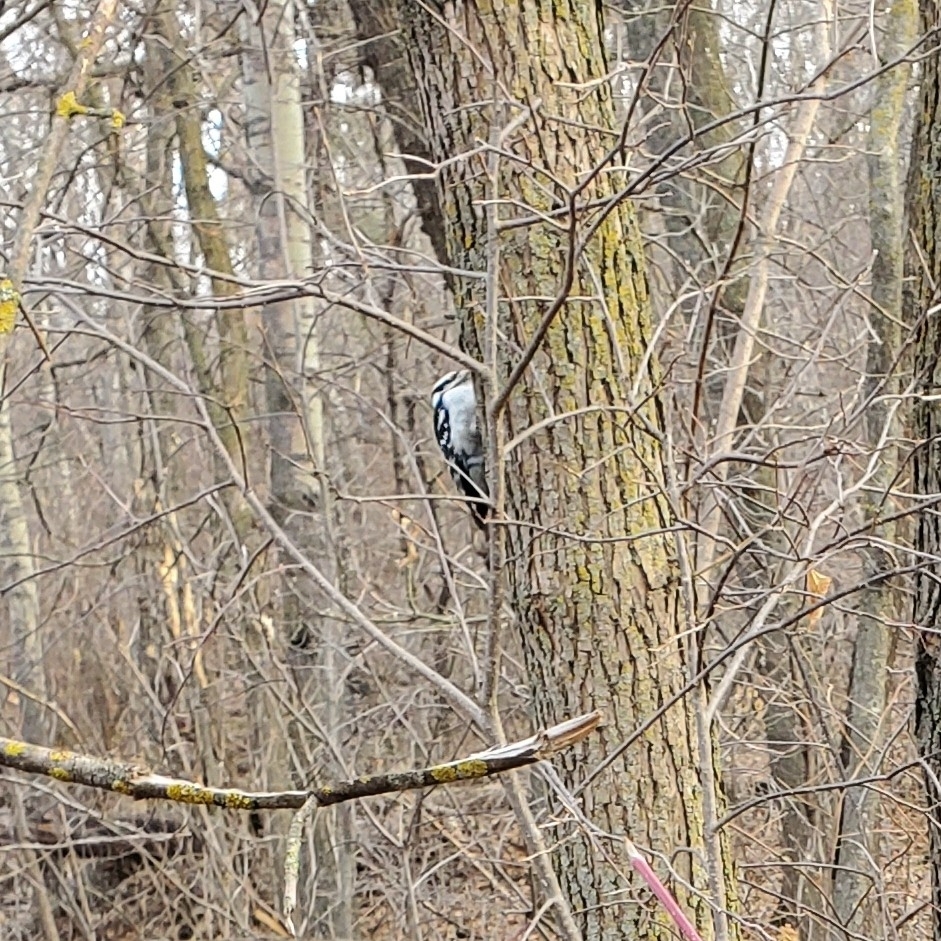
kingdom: Animalia
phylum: Chordata
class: Aves
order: Piciformes
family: Picidae
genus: Dryobates
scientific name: Dryobates pubescens
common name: Downy woodpecker
